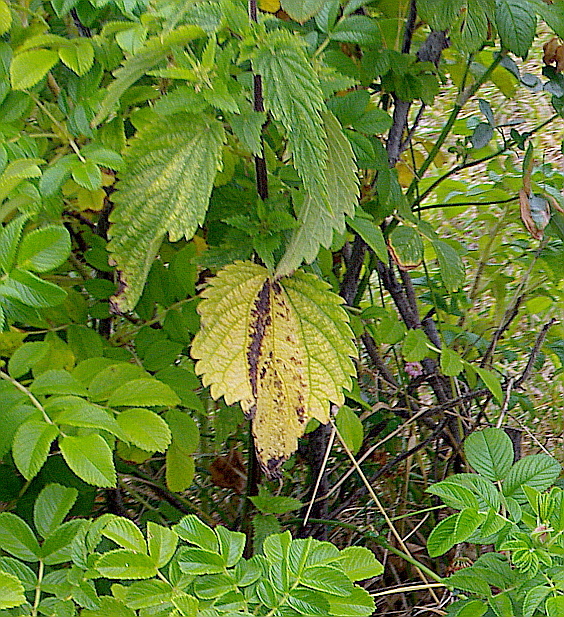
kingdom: Plantae
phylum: Tracheophyta
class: Magnoliopsida
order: Rosales
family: Urticaceae
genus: Urtica
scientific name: Urtica dioica
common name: Common nettle
